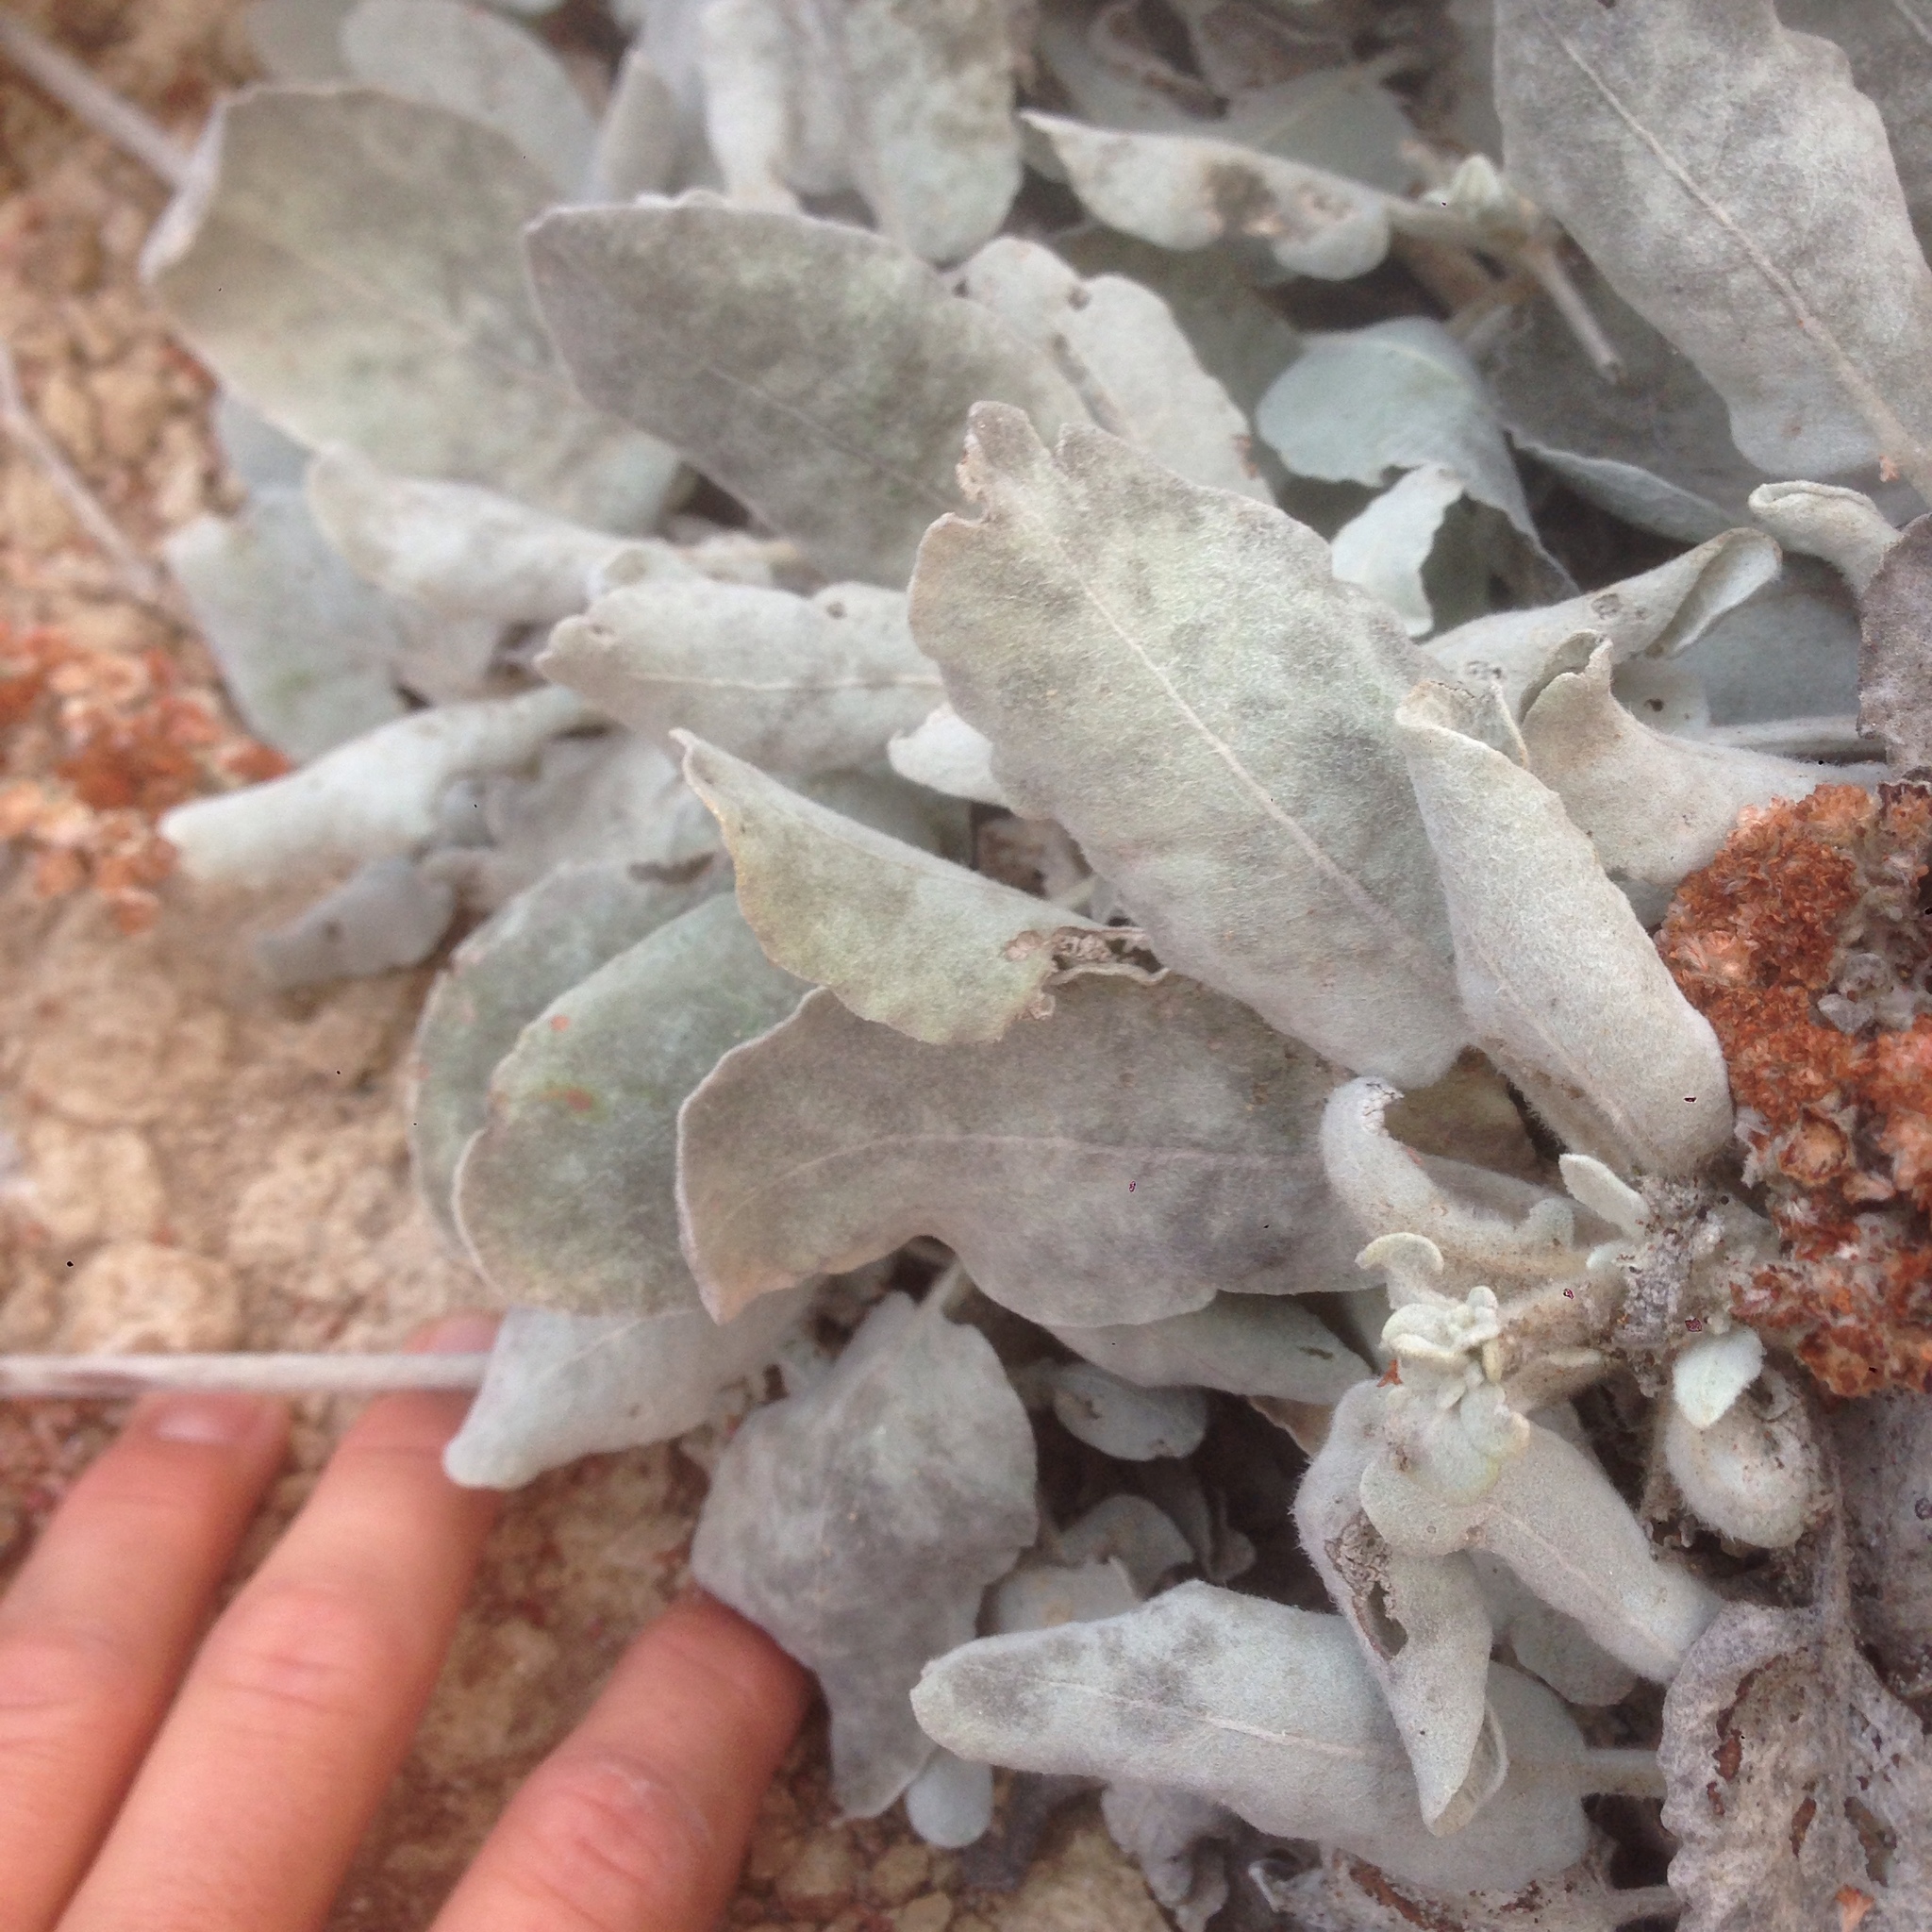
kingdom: Plantae
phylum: Tracheophyta
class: Magnoliopsida
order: Caryophyllales
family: Polygonaceae
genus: Eriogonum
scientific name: Eriogonum giganteum
